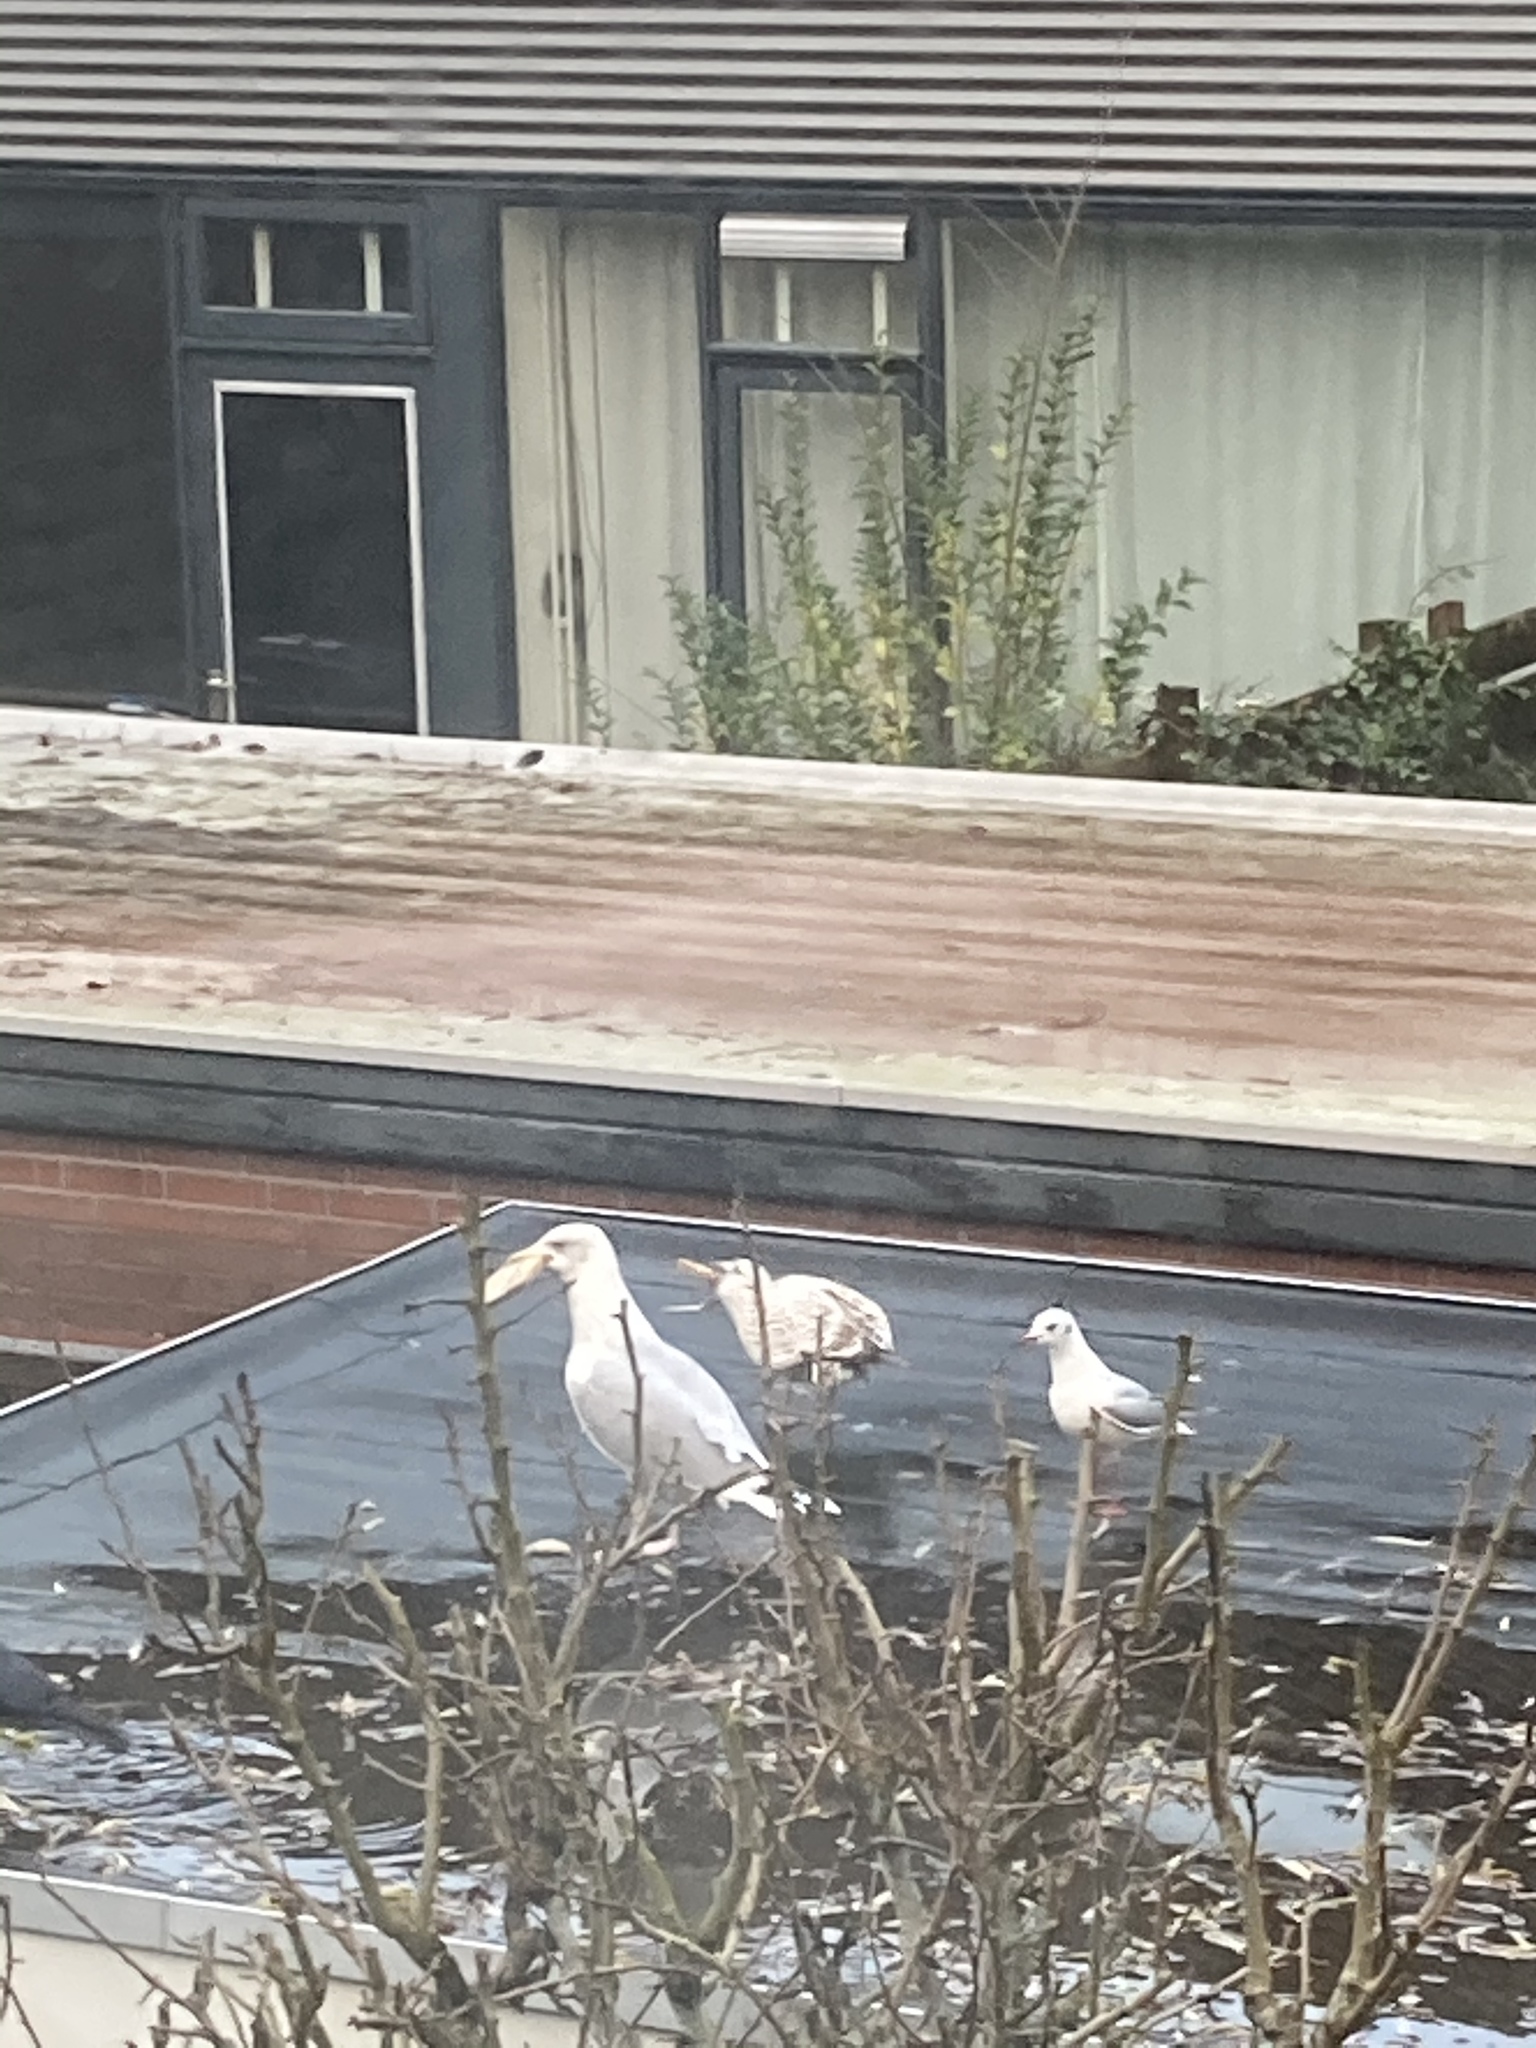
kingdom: Animalia
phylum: Chordata
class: Aves
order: Charadriiformes
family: Laridae
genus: Chroicocephalus
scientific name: Chroicocephalus ridibundus
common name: Black-headed gull
